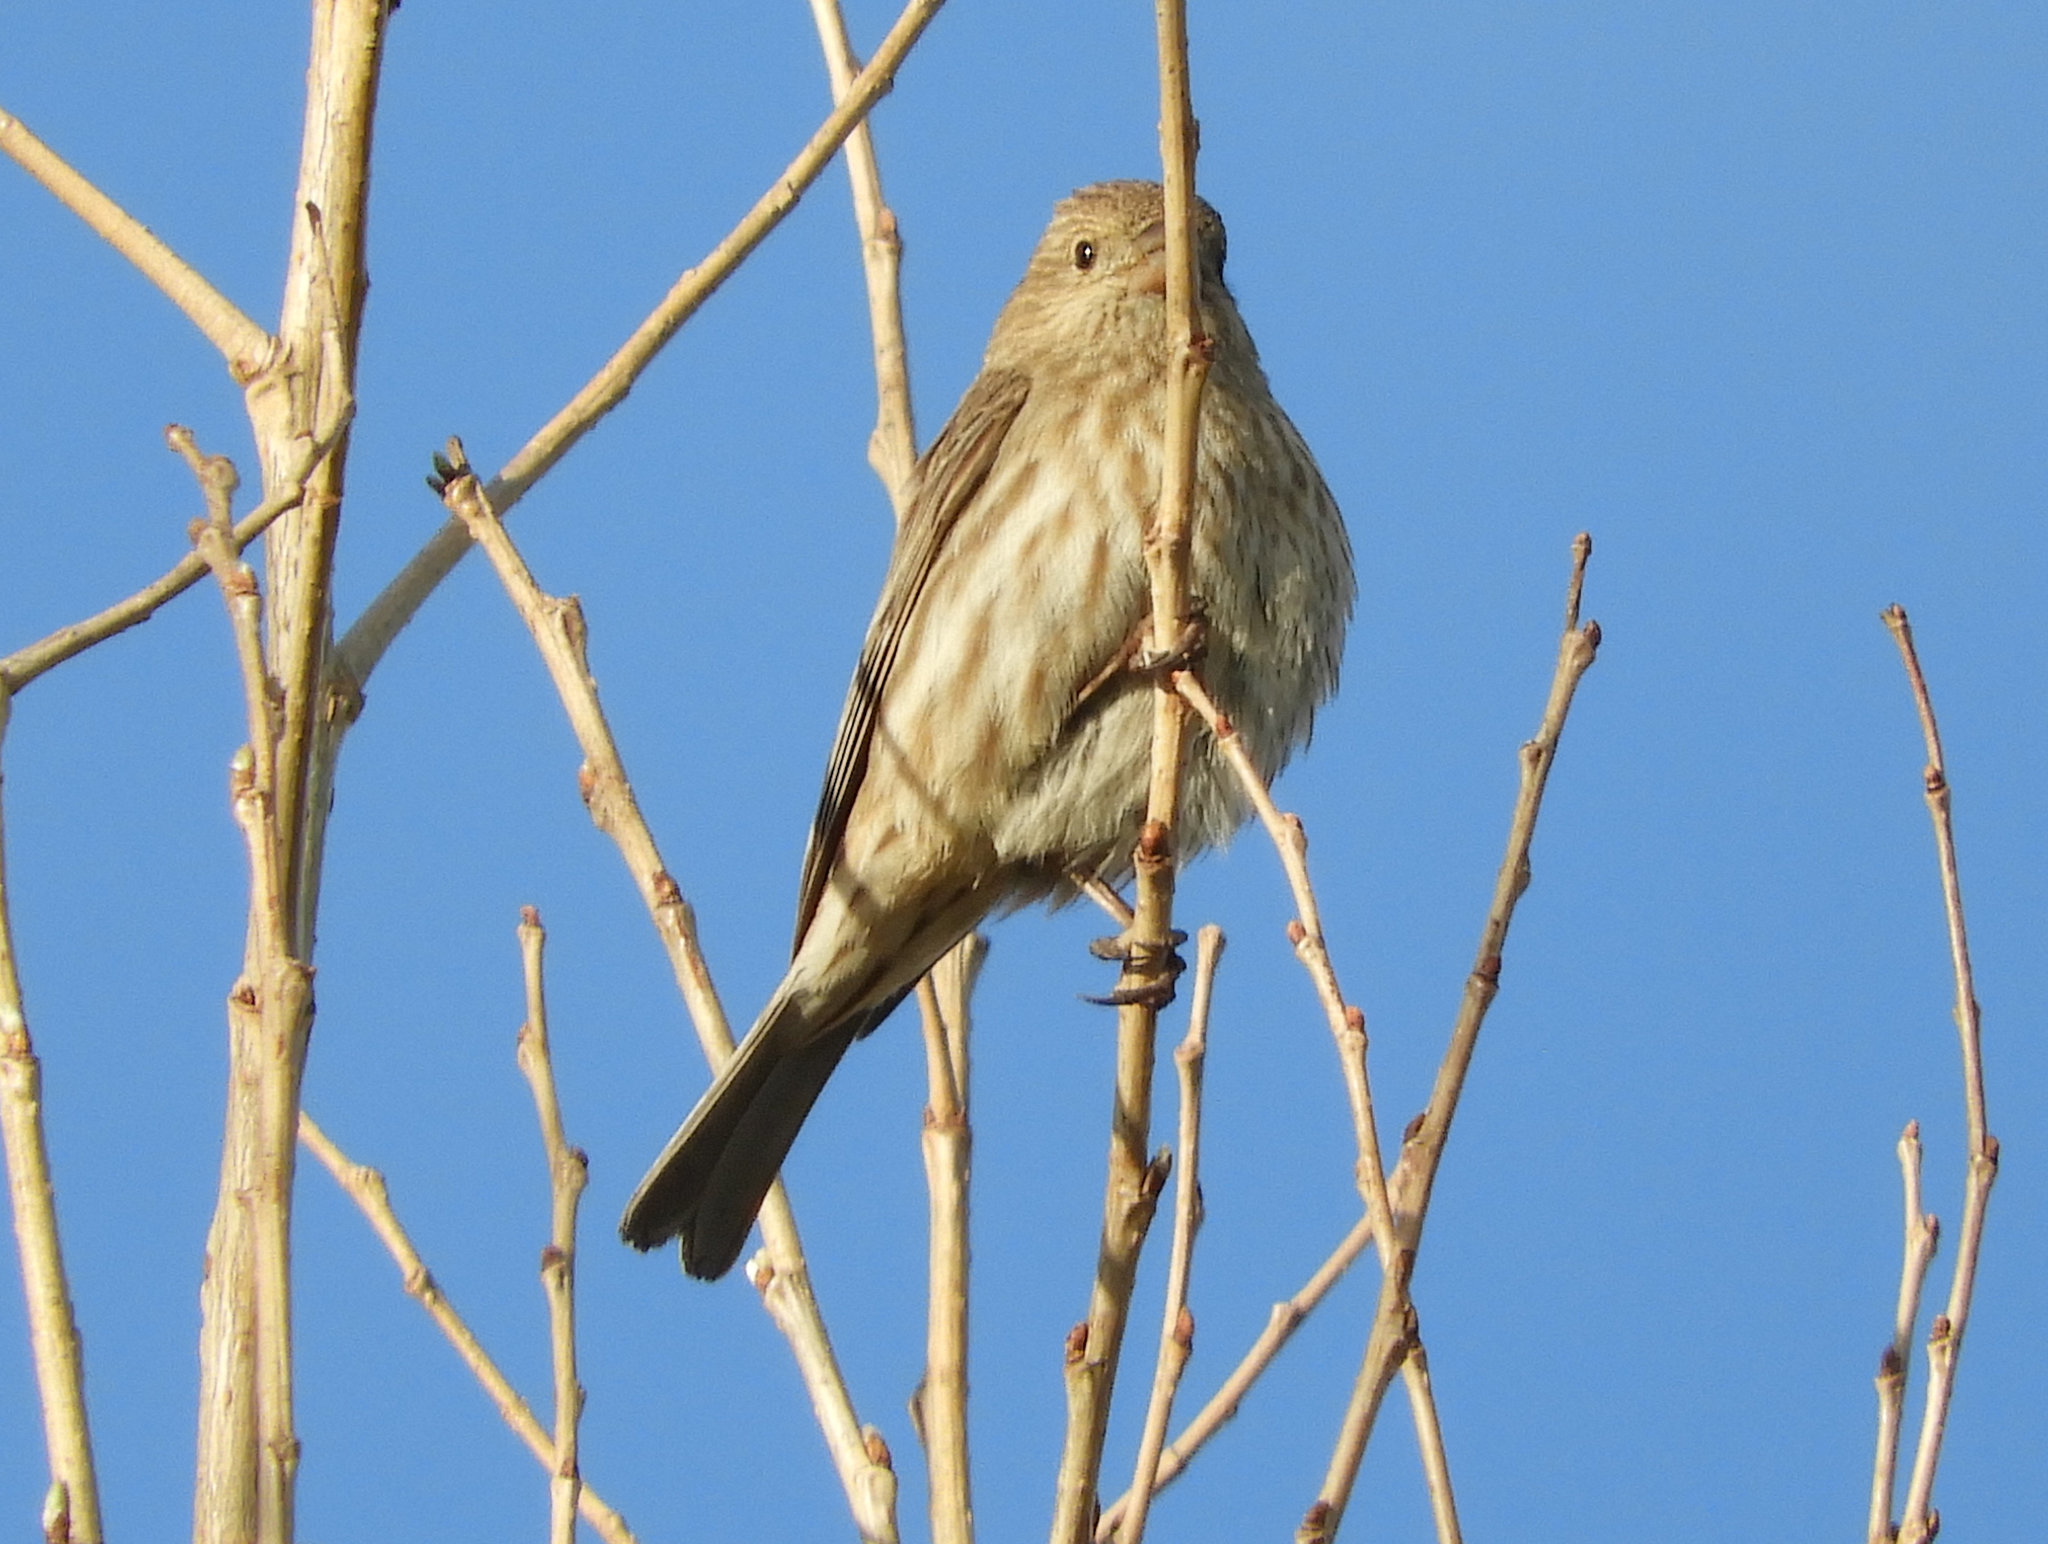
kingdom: Animalia
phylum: Chordata
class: Aves
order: Passeriformes
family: Fringillidae
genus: Haemorhous
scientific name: Haemorhous mexicanus
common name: House finch
